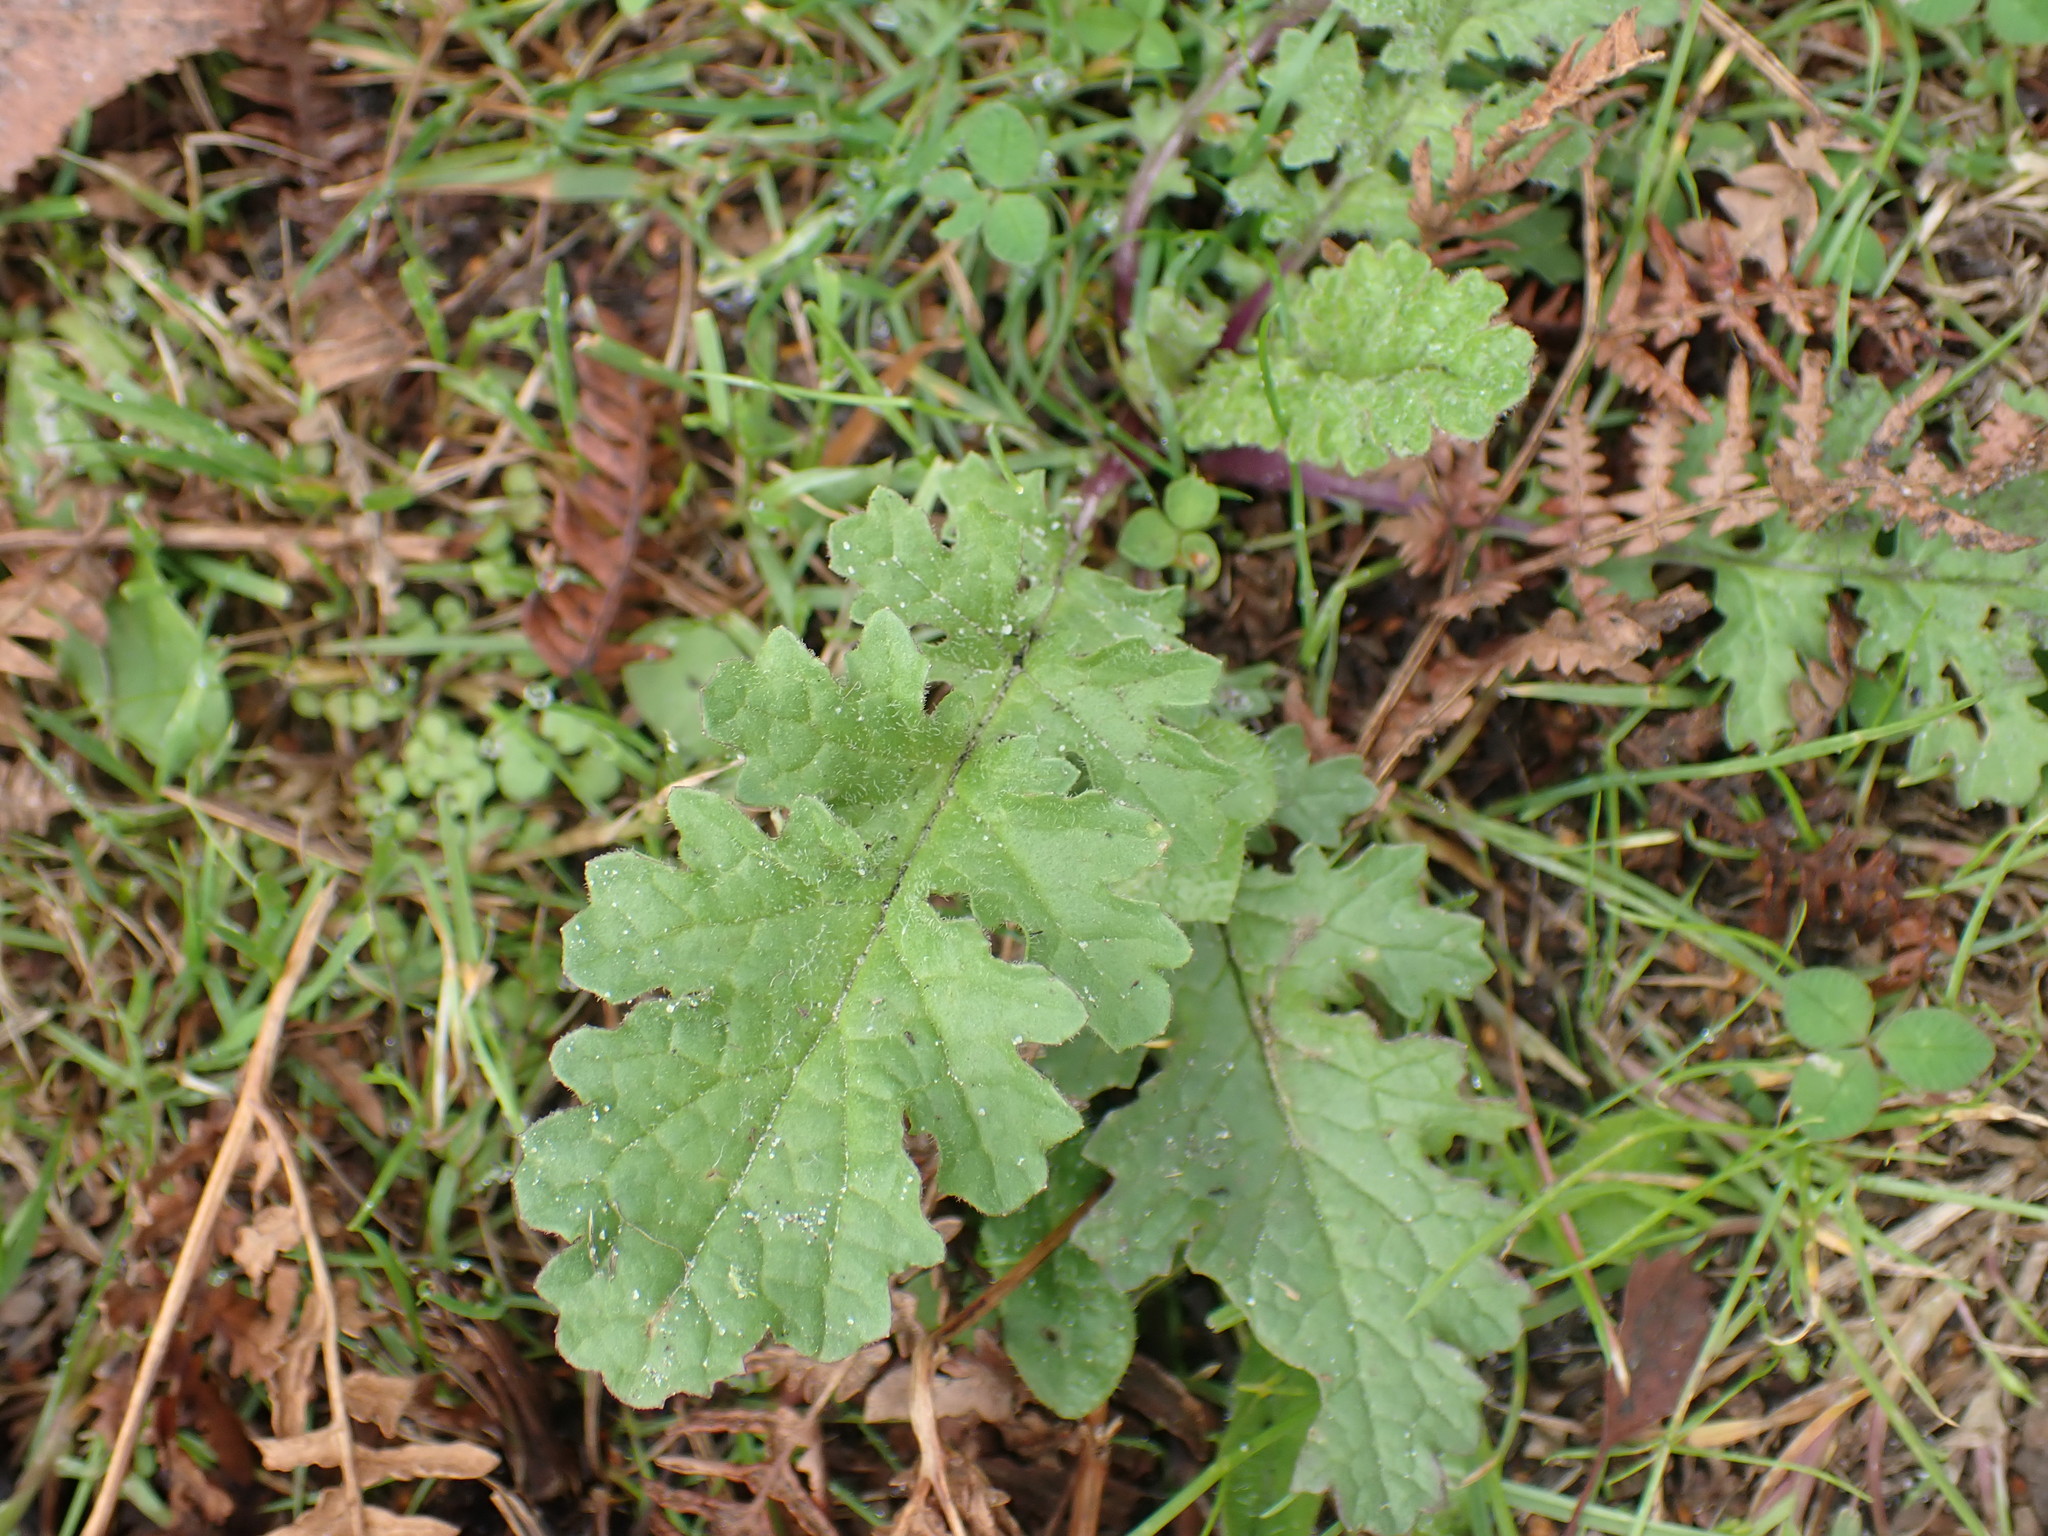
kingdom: Plantae
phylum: Tracheophyta
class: Magnoliopsida
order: Asterales
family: Asteraceae
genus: Jacobaea
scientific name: Jacobaea vulgaris
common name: Stinking willie
